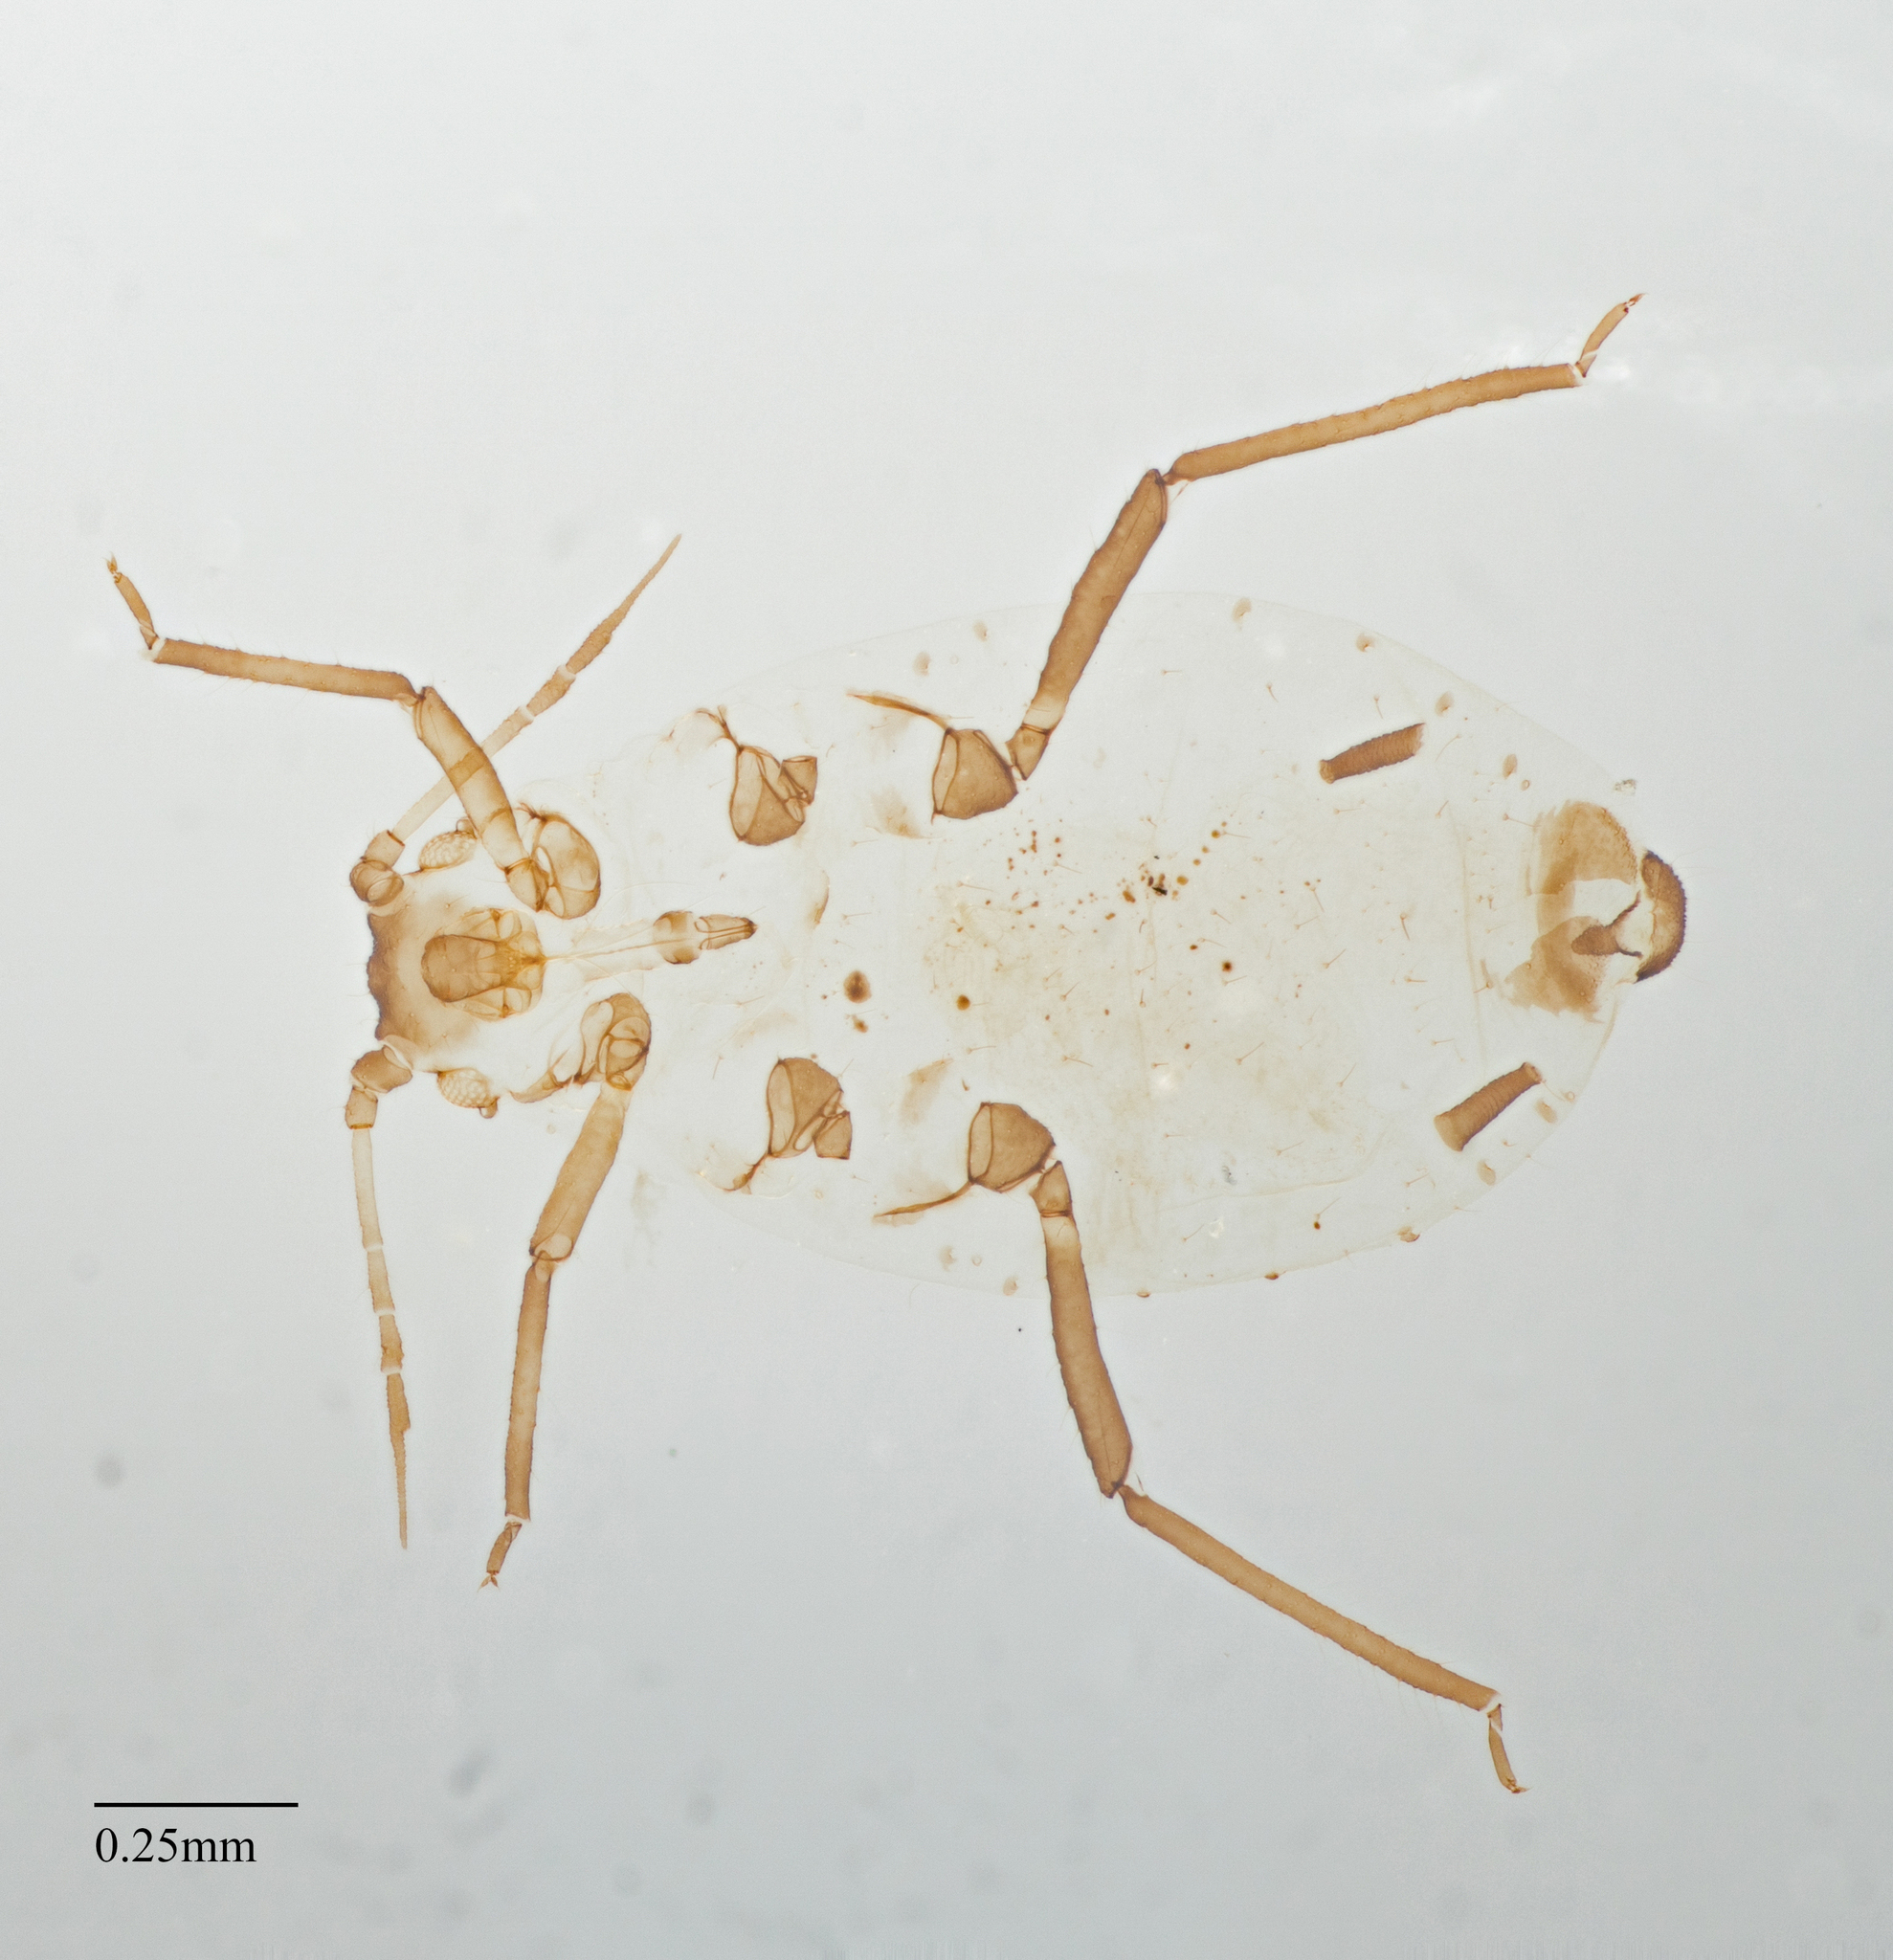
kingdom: Animalia
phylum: Arthropoda
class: Insecta
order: Hemiptera
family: Aphididae
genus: Rhopalosiphum
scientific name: Rhopalosiphum maidis
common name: Corn leaf aphid
